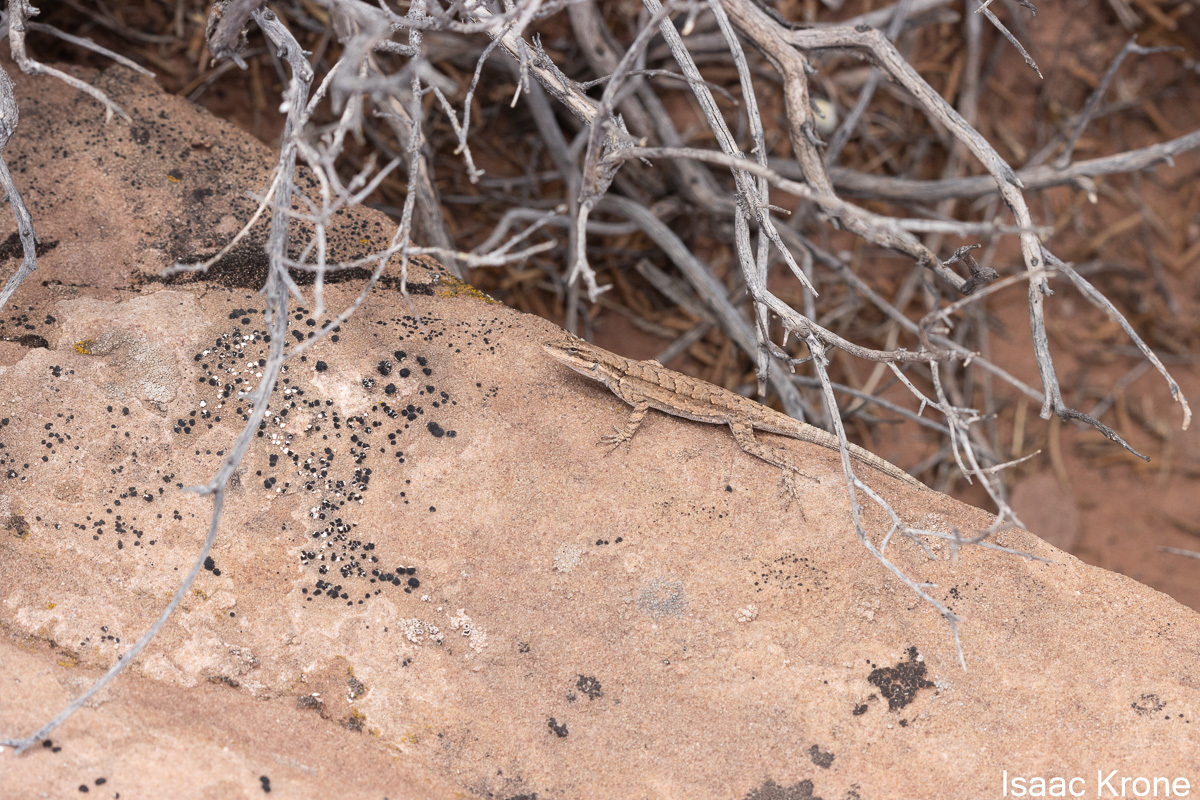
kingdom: Animalia
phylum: Chordata
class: Squamata
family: Phrynosomatidae
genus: Urosaurus
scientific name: Urosaurus ornatus
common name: Ornate tree lizard
